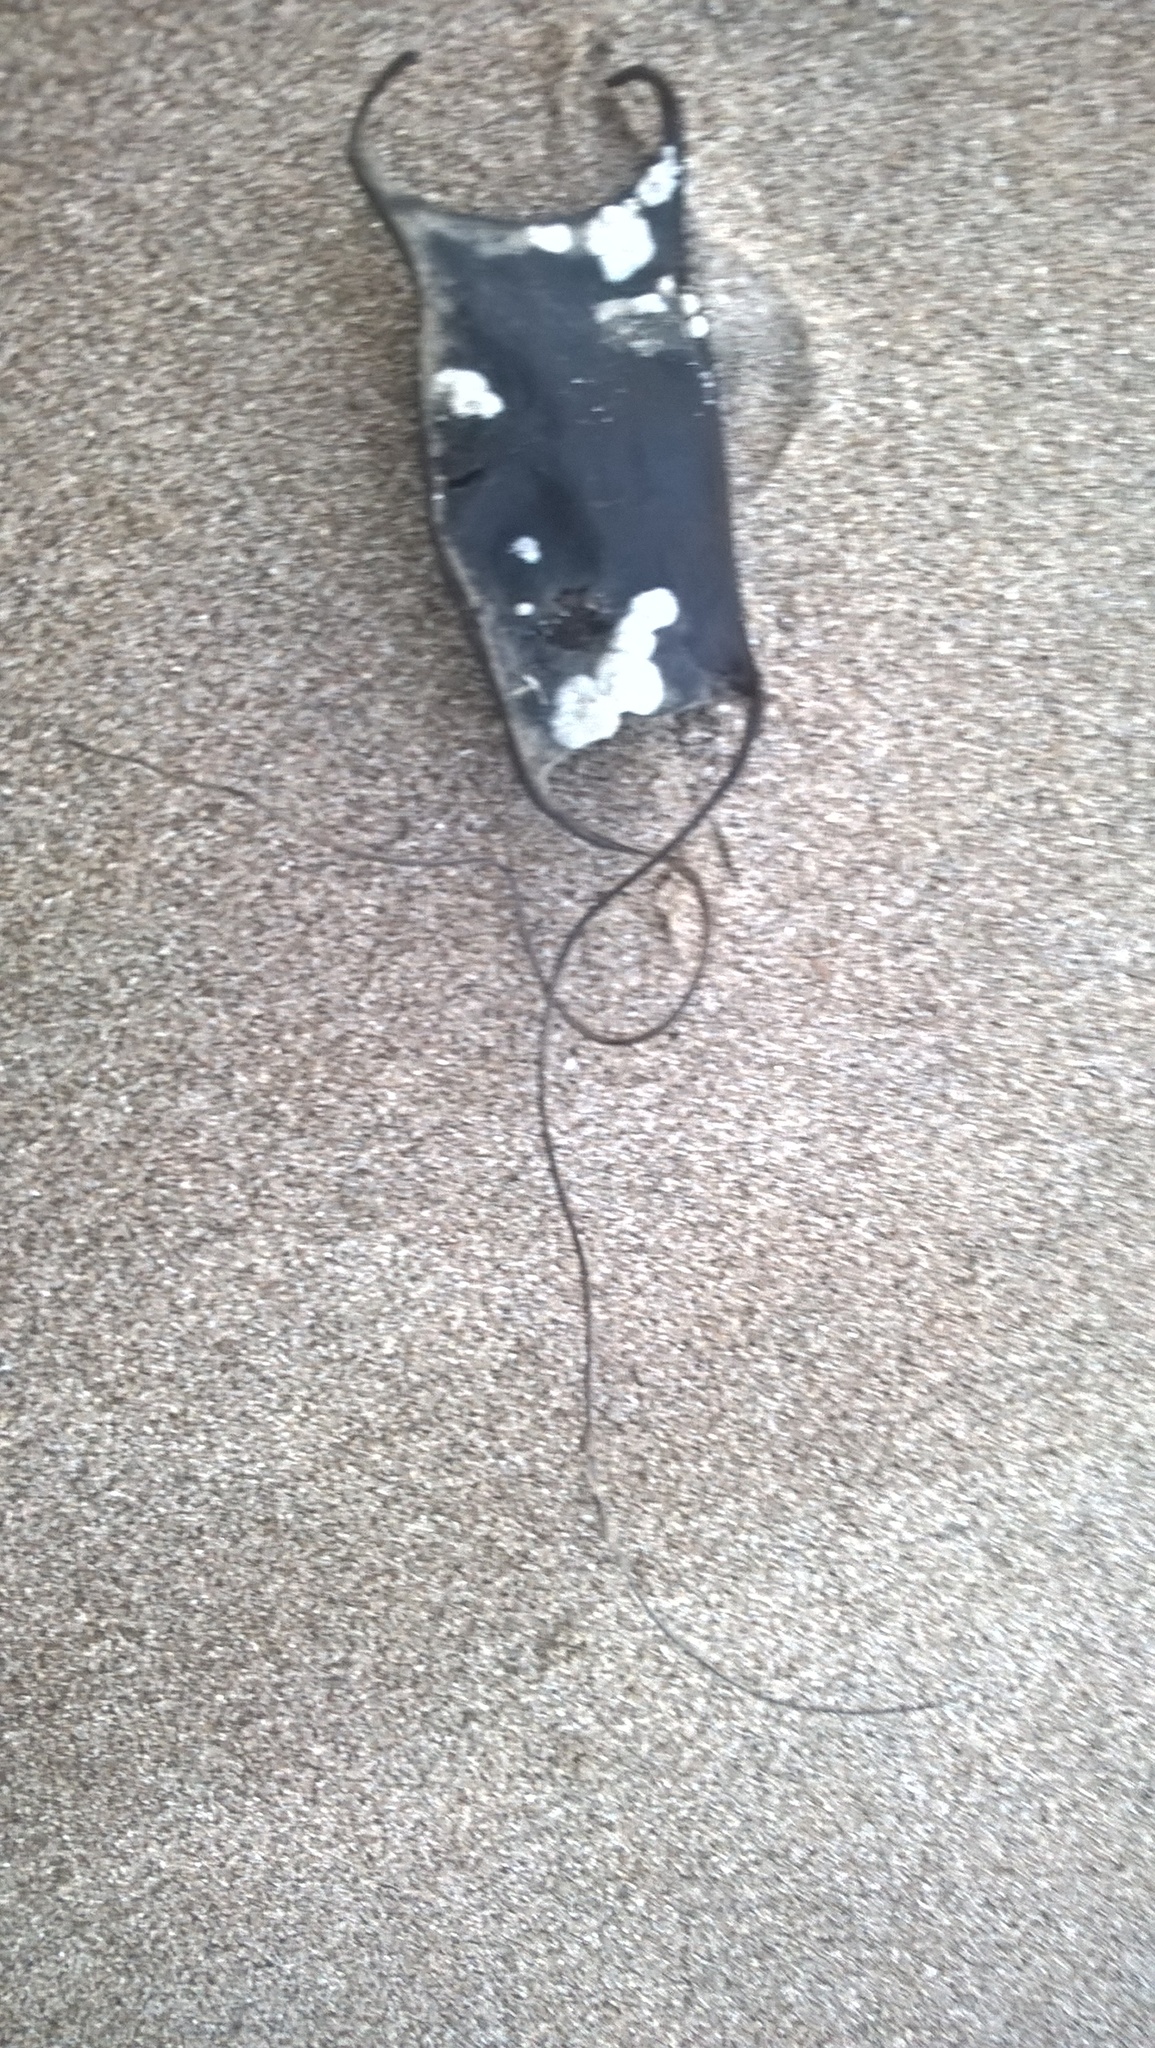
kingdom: Animalia
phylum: Chordata
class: Elasmobranchii
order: Rajiformes
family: Arhynchobatidae
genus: Sympterygia
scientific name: Sympterygia acuta
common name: Bignose fanskate
